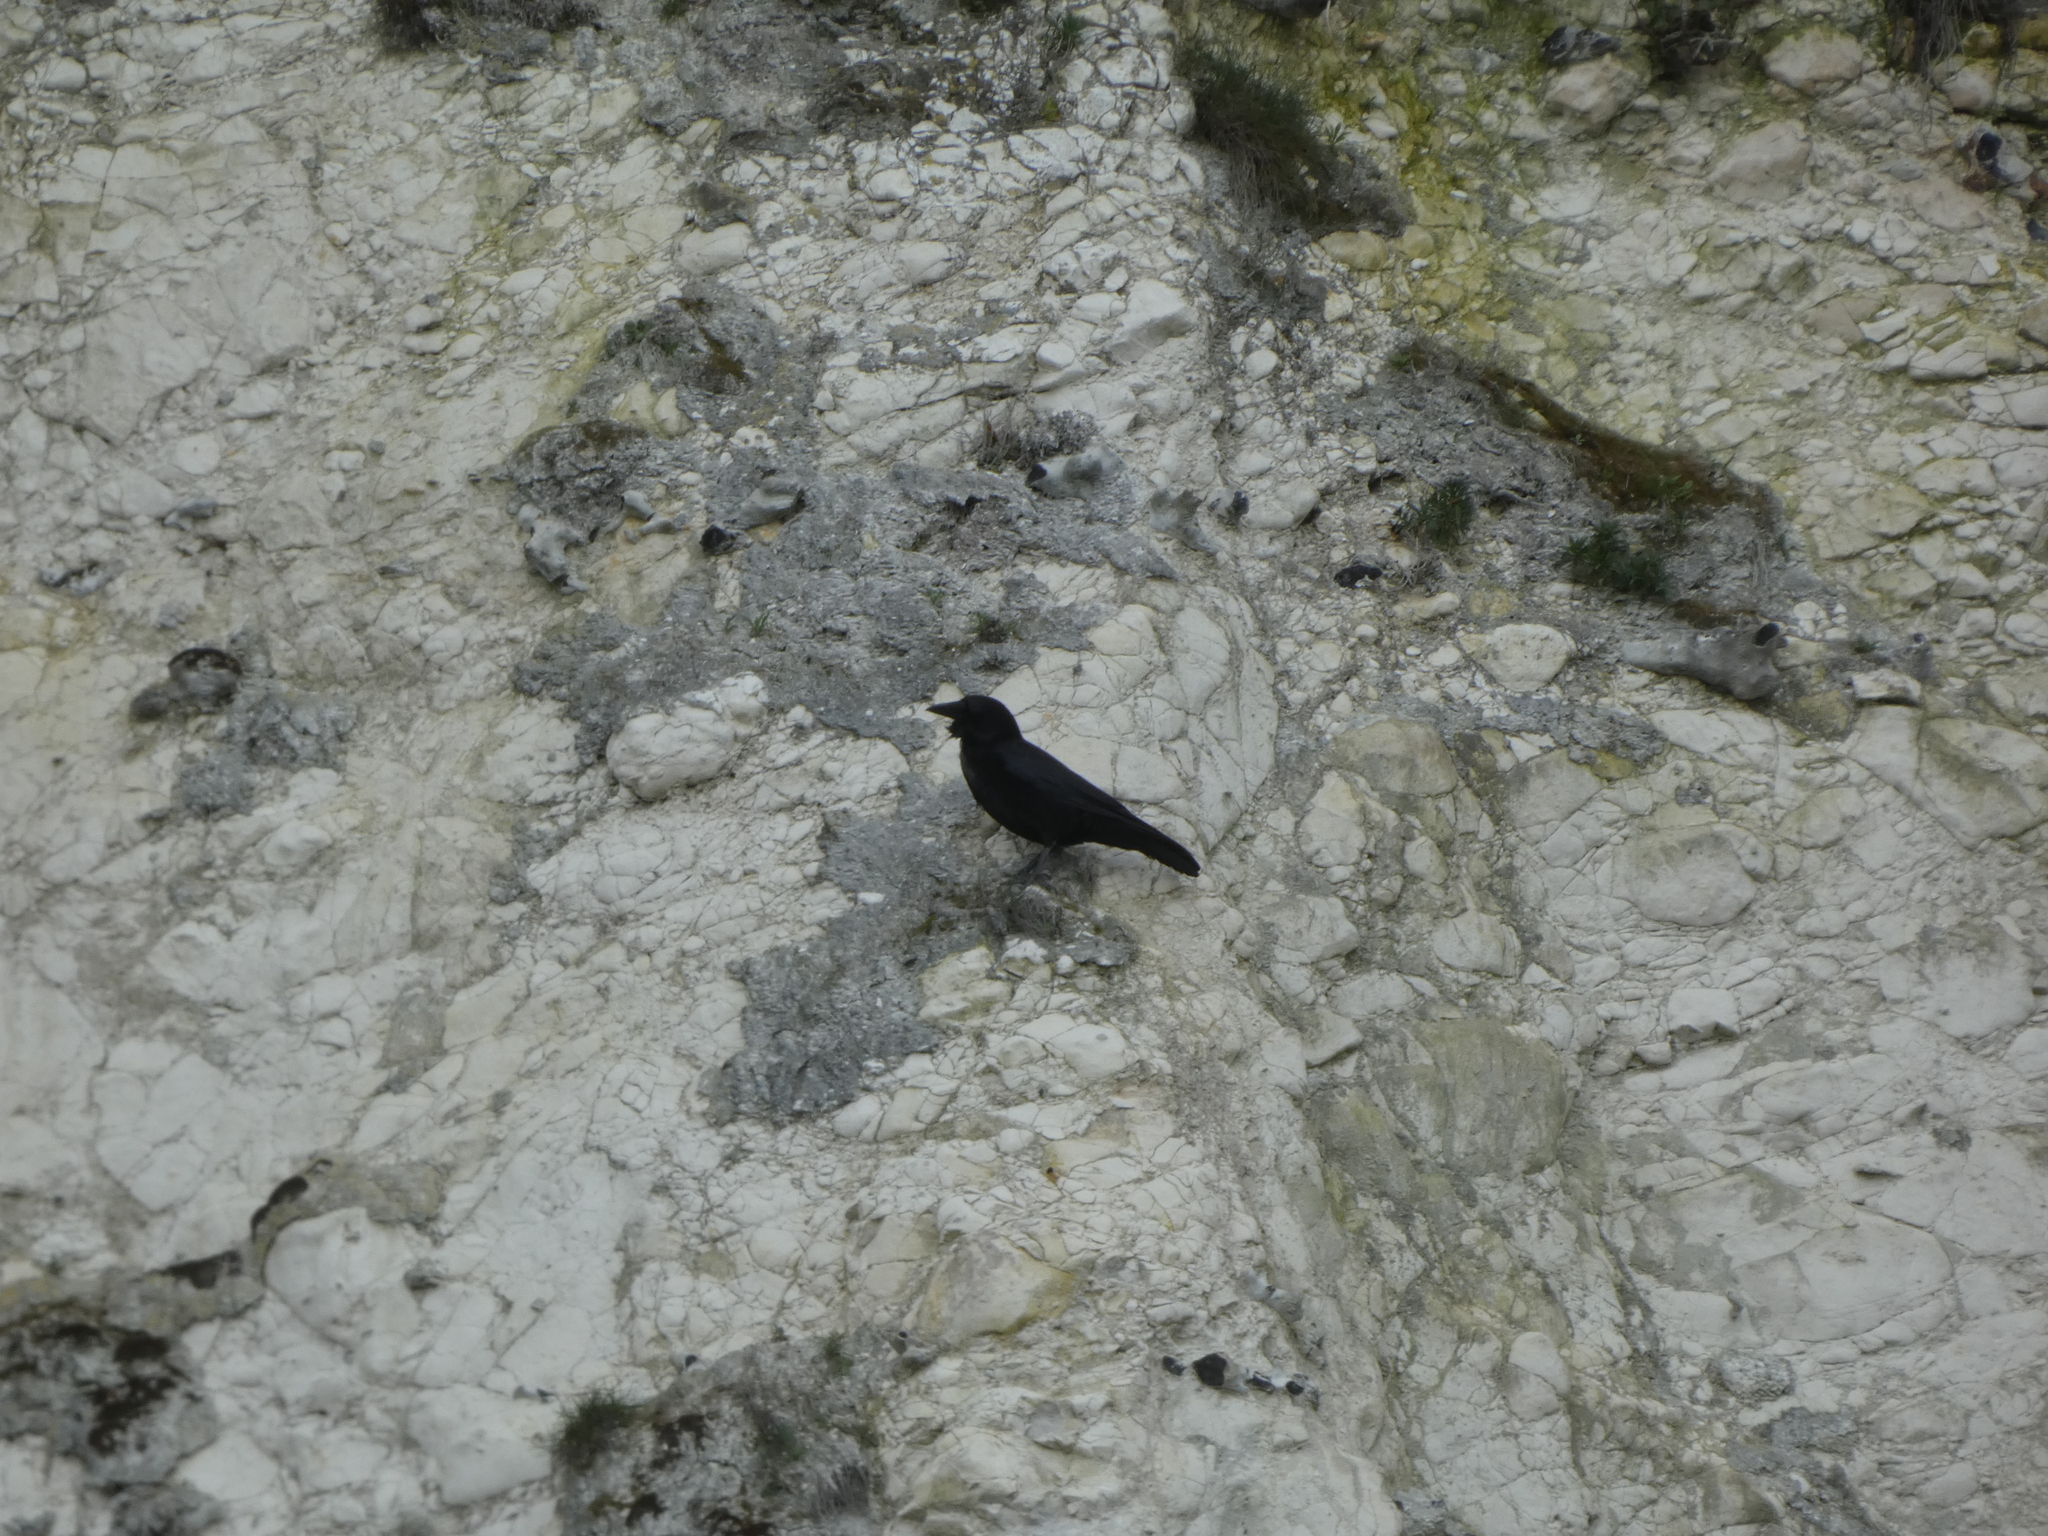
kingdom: Animalia
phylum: Chordata
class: Aves
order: Passeriformes
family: Corvidae
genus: Corvus
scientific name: Corvus corone
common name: Carrion crow
